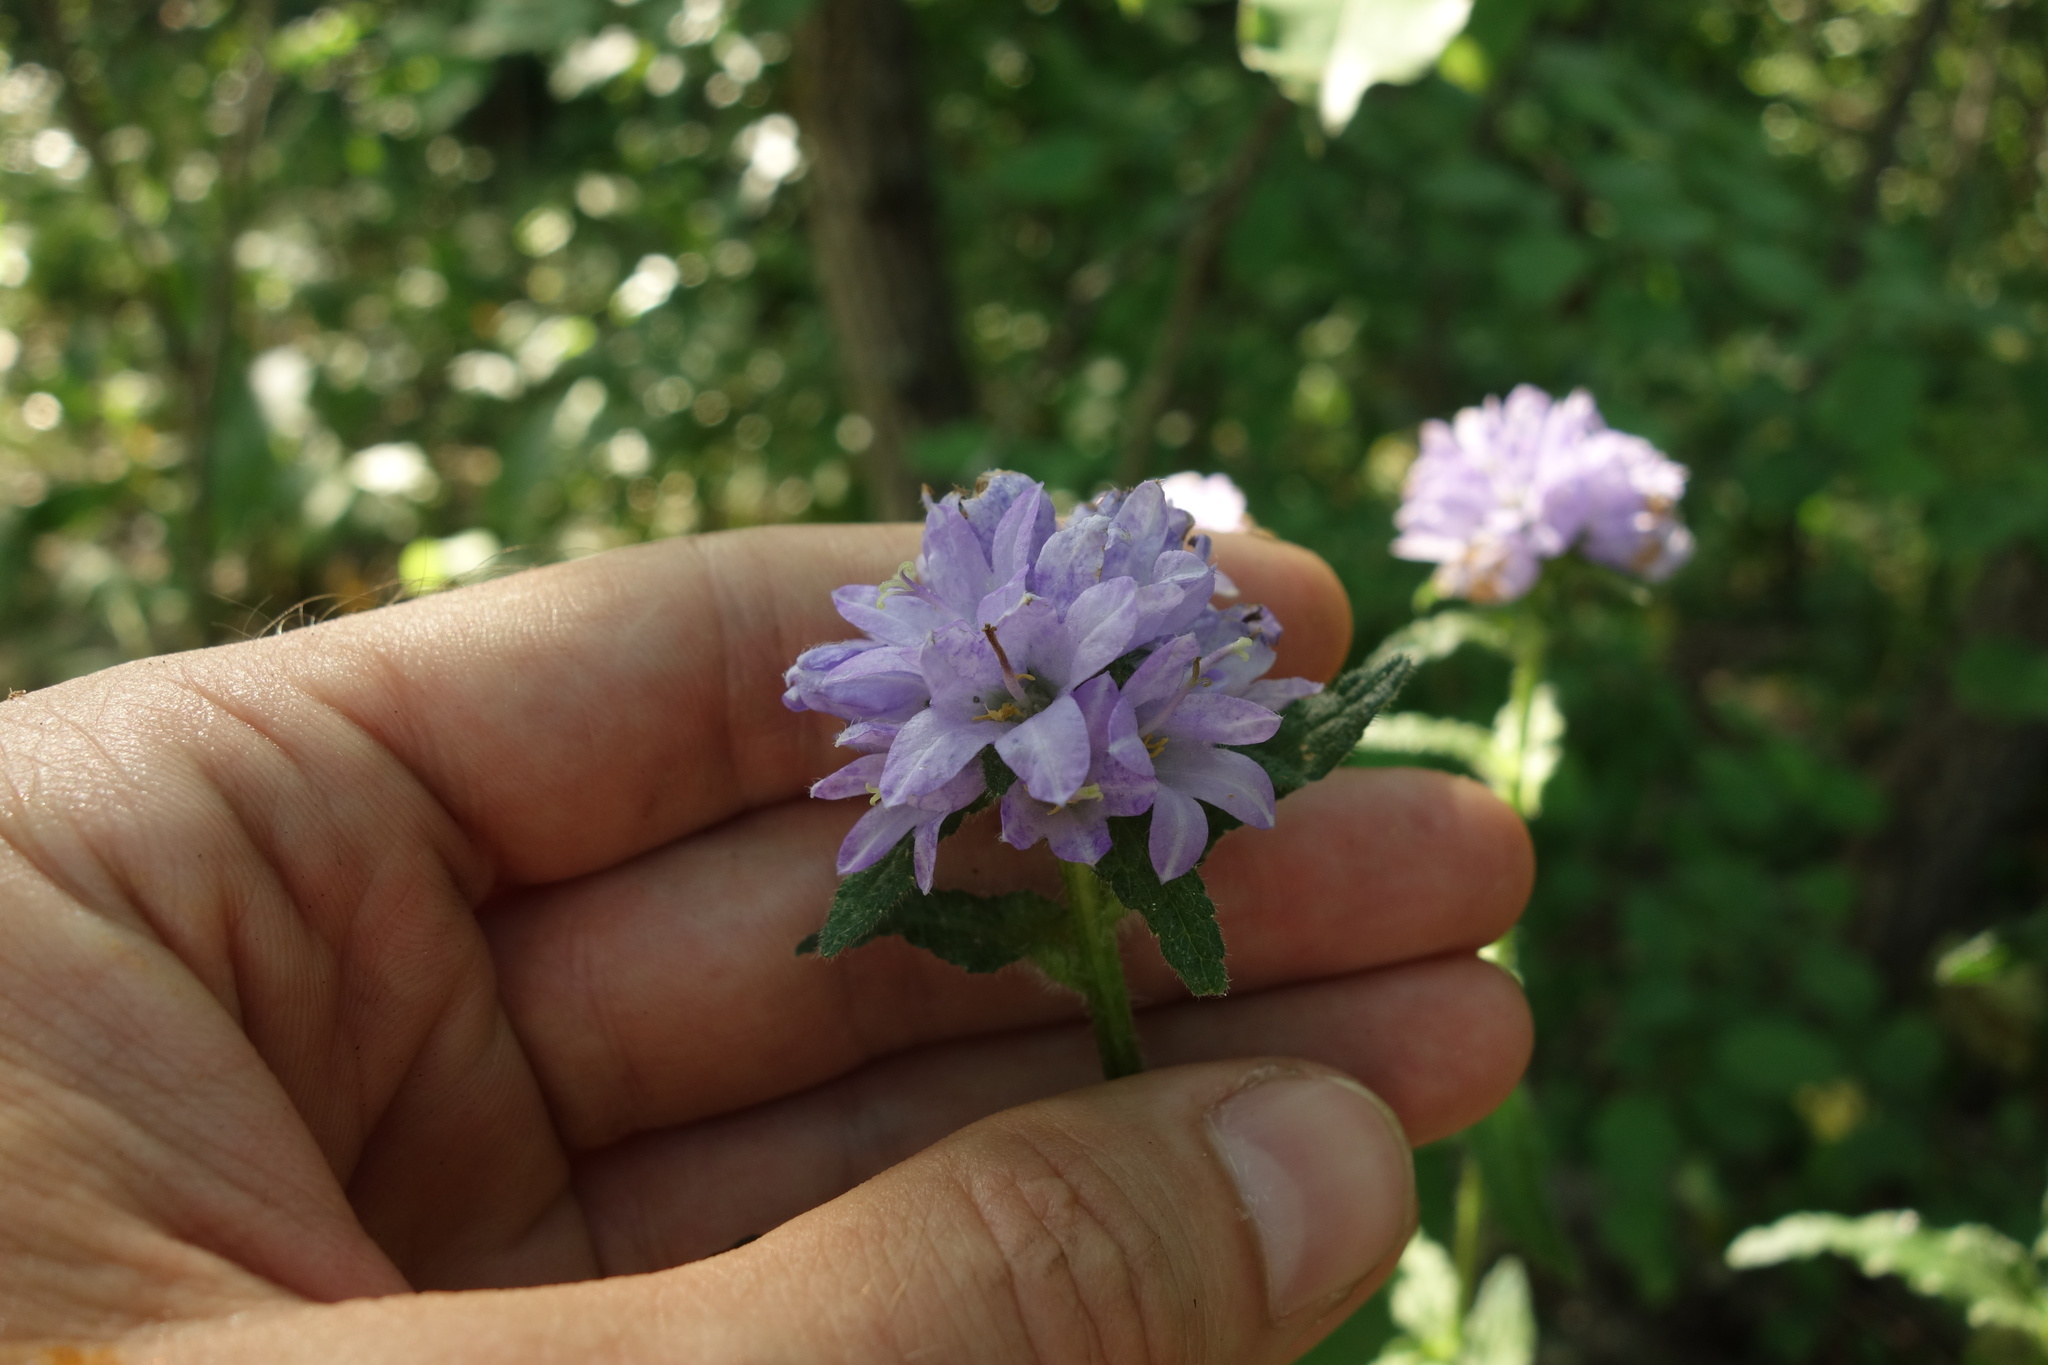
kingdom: Plantae
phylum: Tracheophyta
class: Magnoliopsida
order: Asterales
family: Campanulaceae
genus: Campanula
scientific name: Campanula cervicaria
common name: Bristly bellflower
